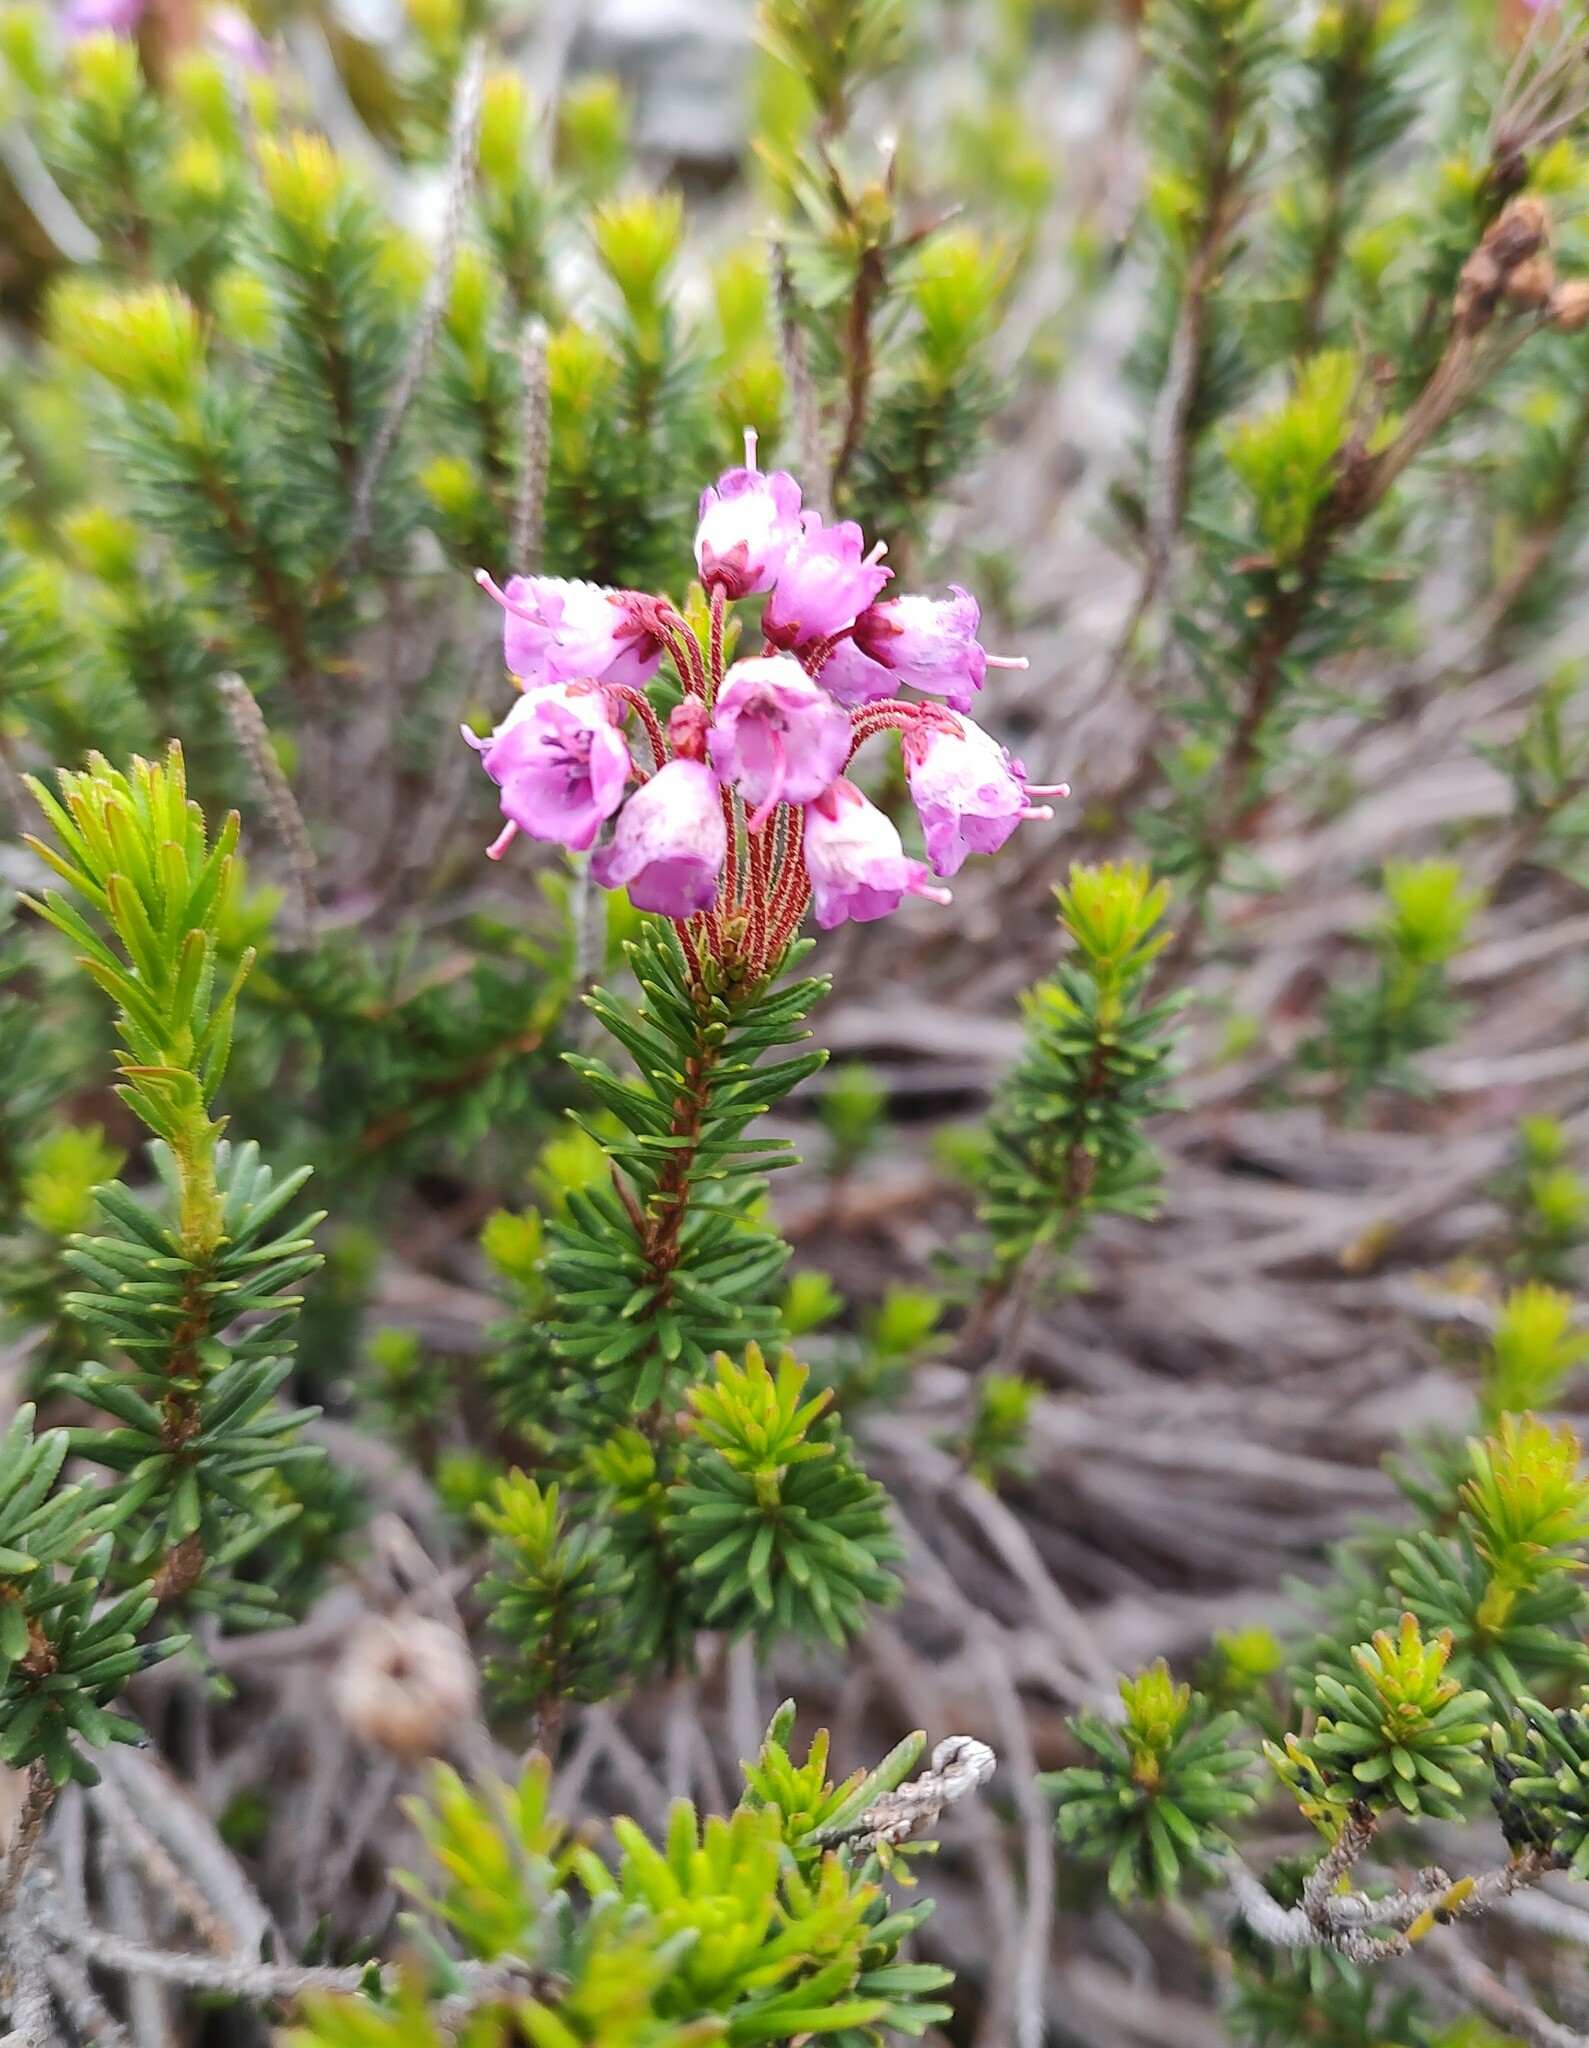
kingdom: Plantae
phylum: Tracheophyta
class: Magnoliopsida
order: Ericales
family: Ericaceae
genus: Phyllodoce
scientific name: Phyllodoce empetriformis
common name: Pink mountain heather
